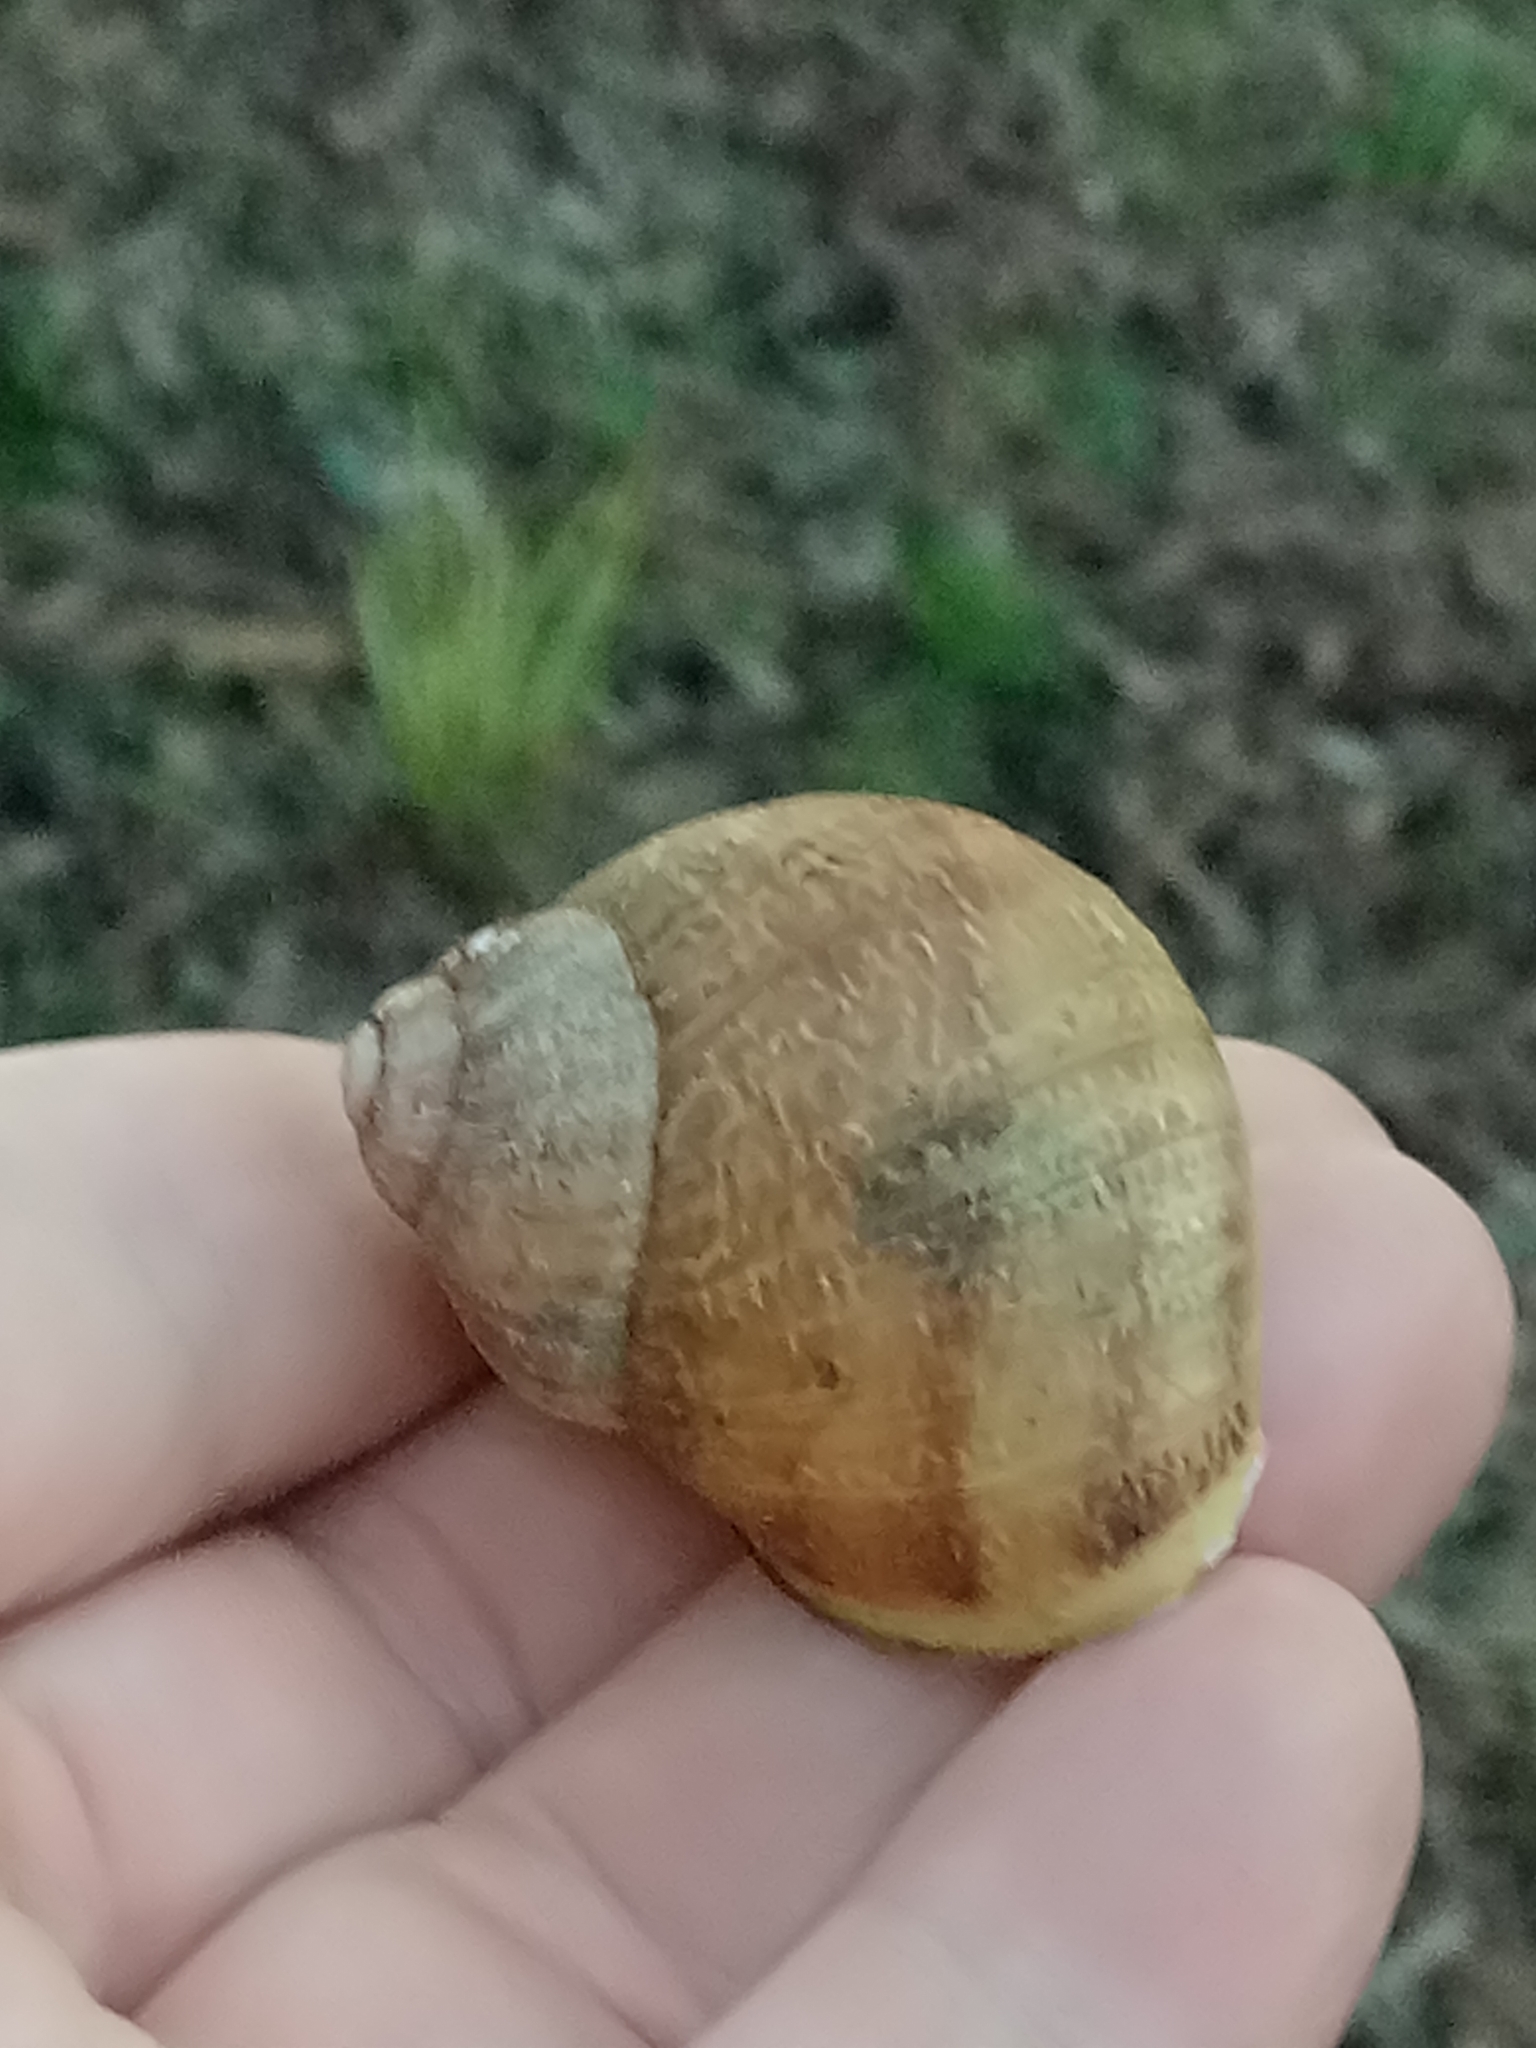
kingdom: Animalia
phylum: Mollusca
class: Gastropoda
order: Stylommatophora
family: Helicidae
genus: Cornu
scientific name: Cornu aspersum
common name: Brown garden snail
